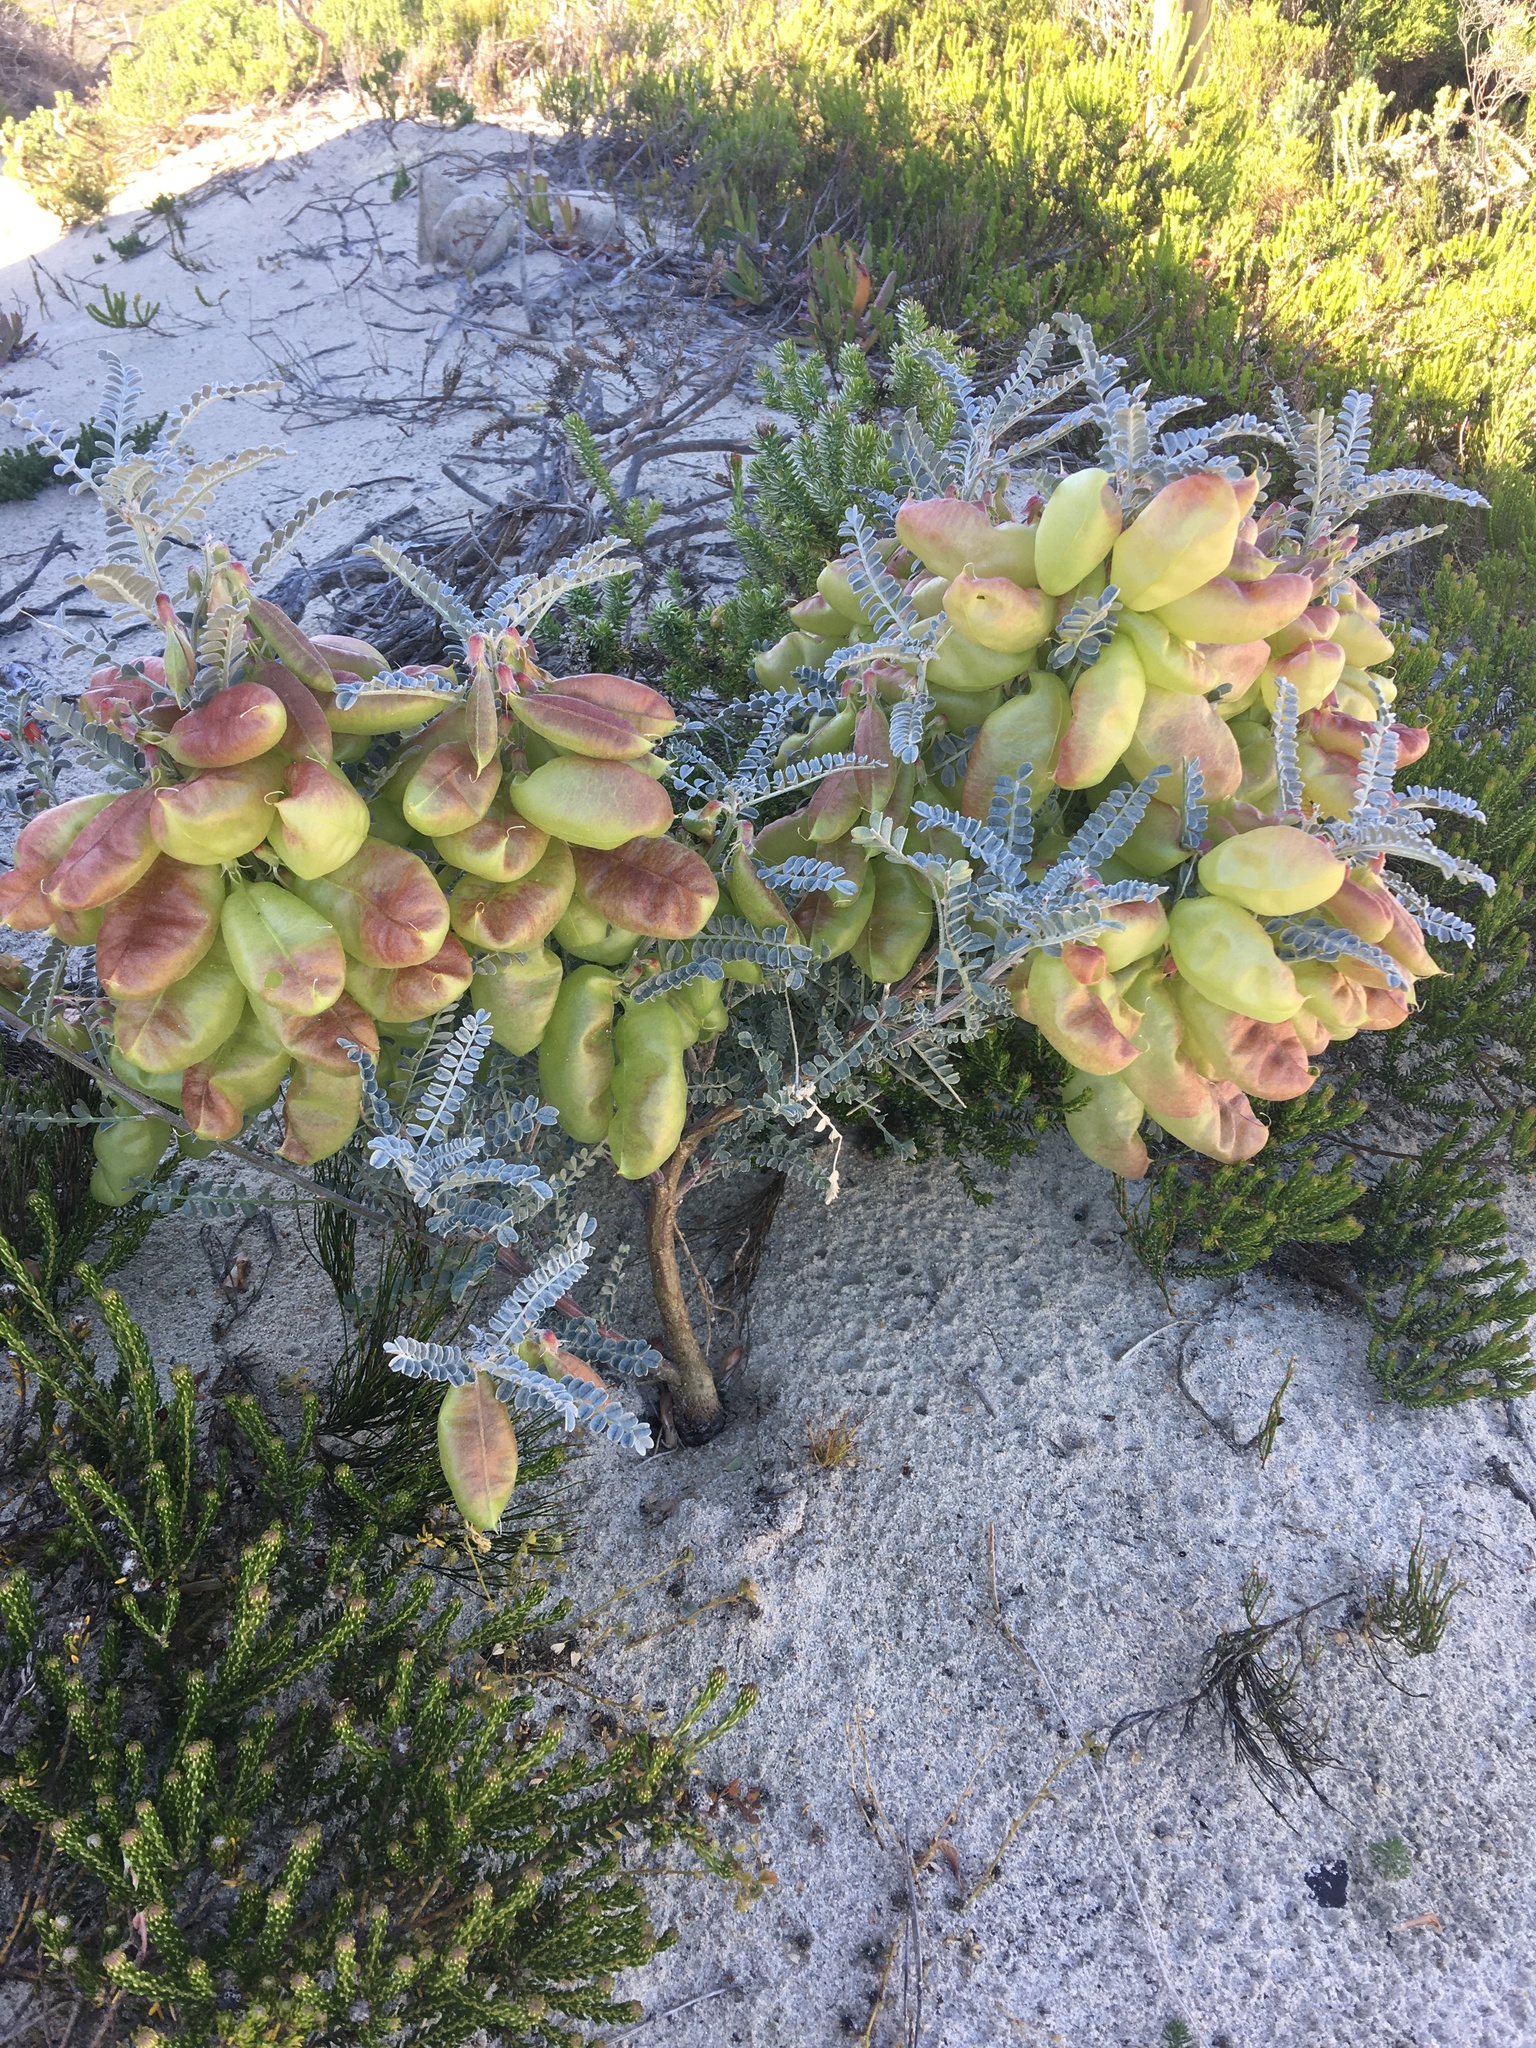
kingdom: Plantae
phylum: Tracheophyta
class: Magnoliopsida
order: Fabales
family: Fabaceae
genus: Lessertia
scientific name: Lessertia frutescens
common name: Balloon-pea
